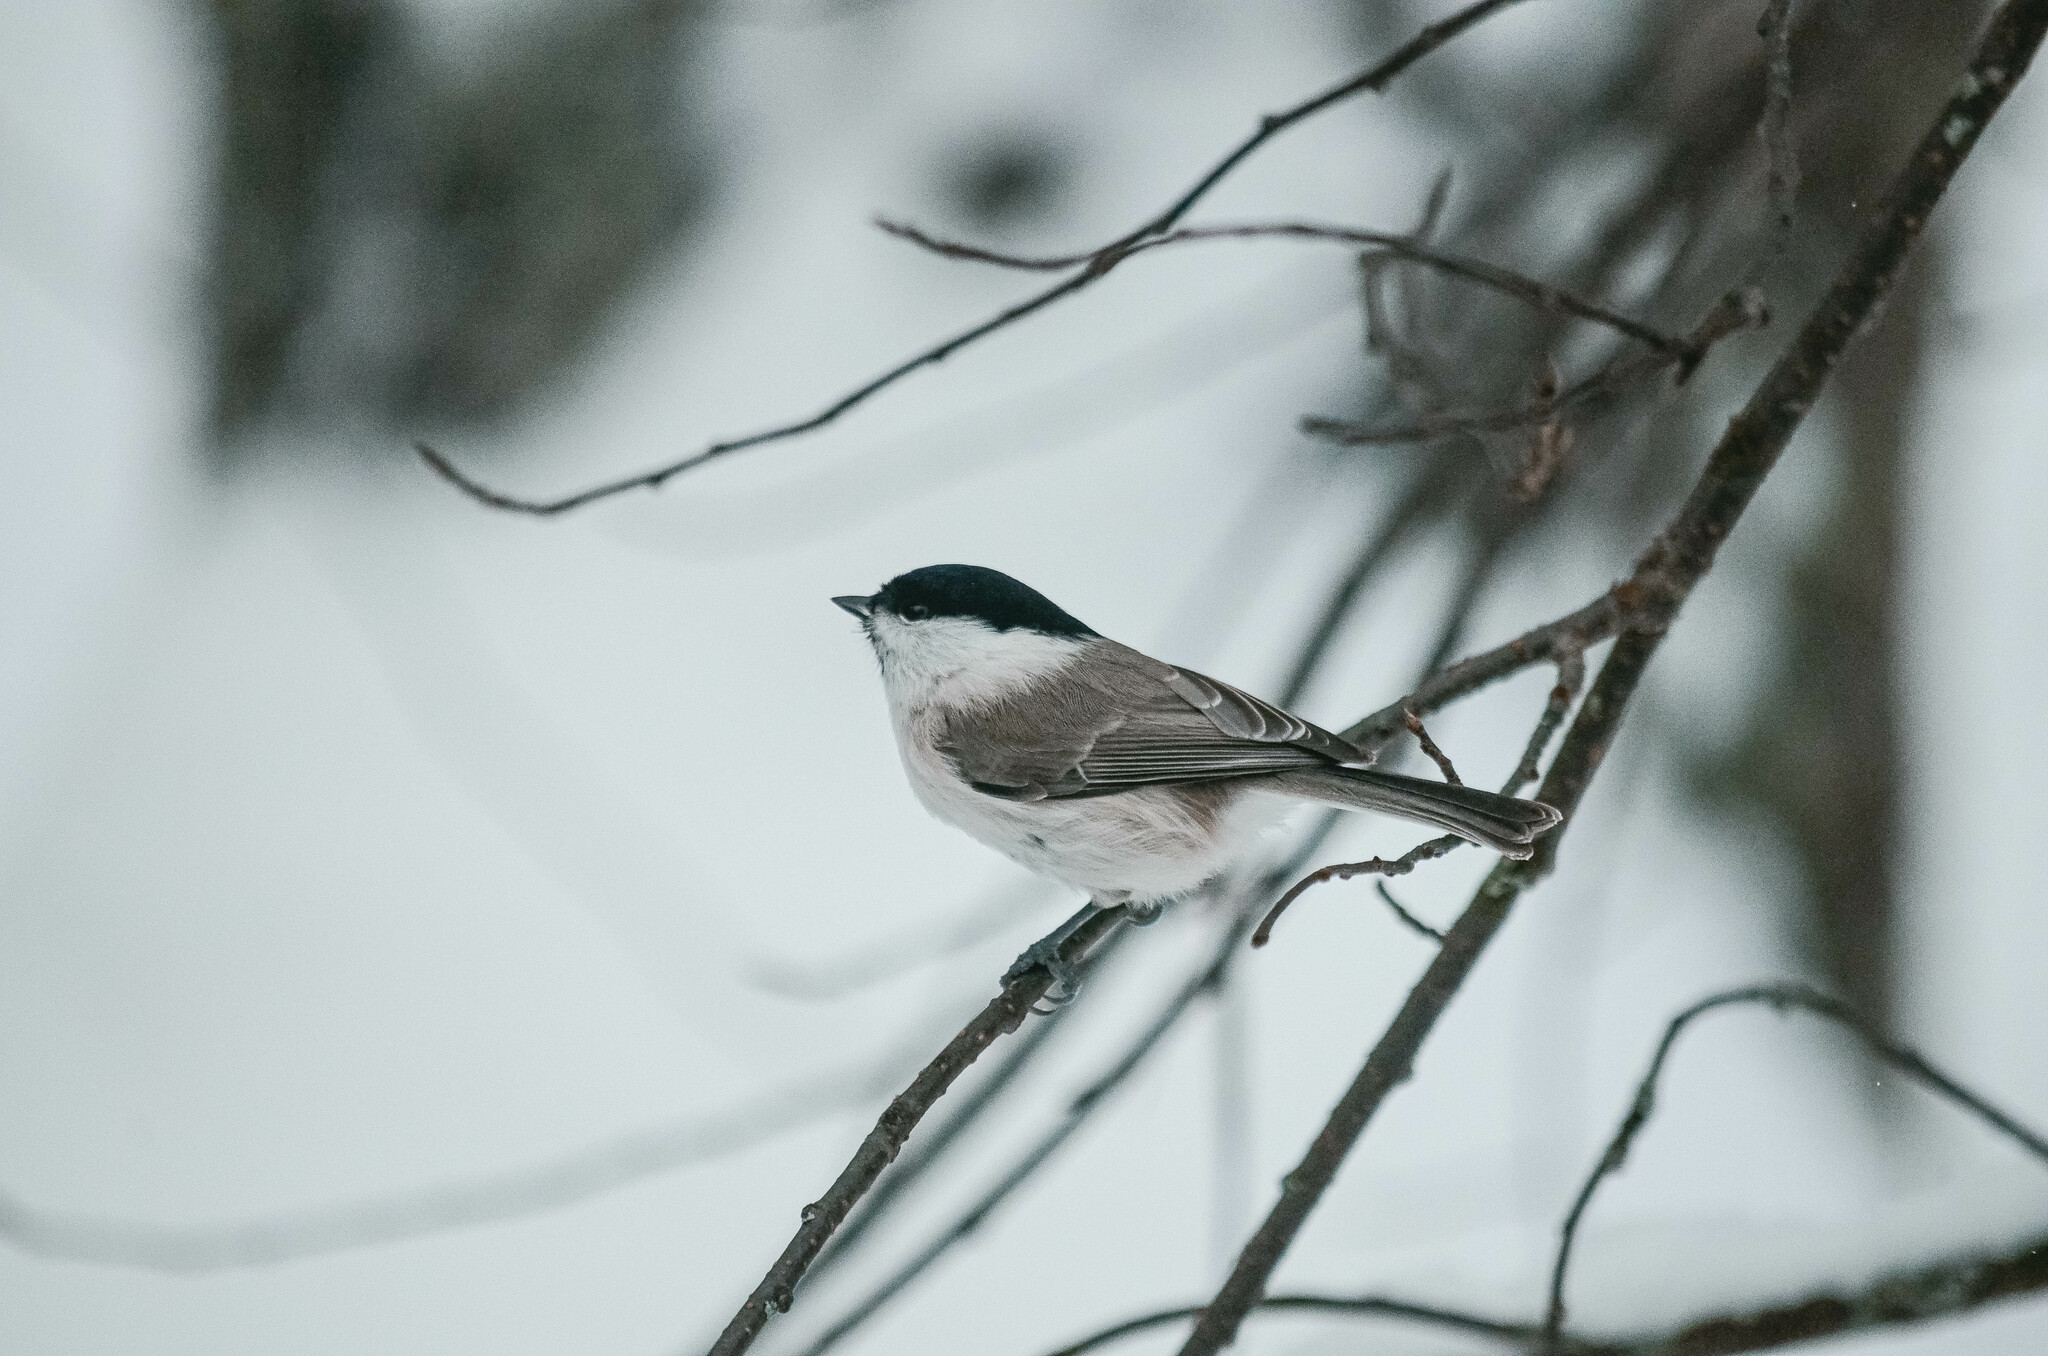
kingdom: Animalia
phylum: Chordata
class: Aves
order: Passeriformes
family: Paridae
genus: Poecile
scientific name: Poecile palustris
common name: Marsh tit
